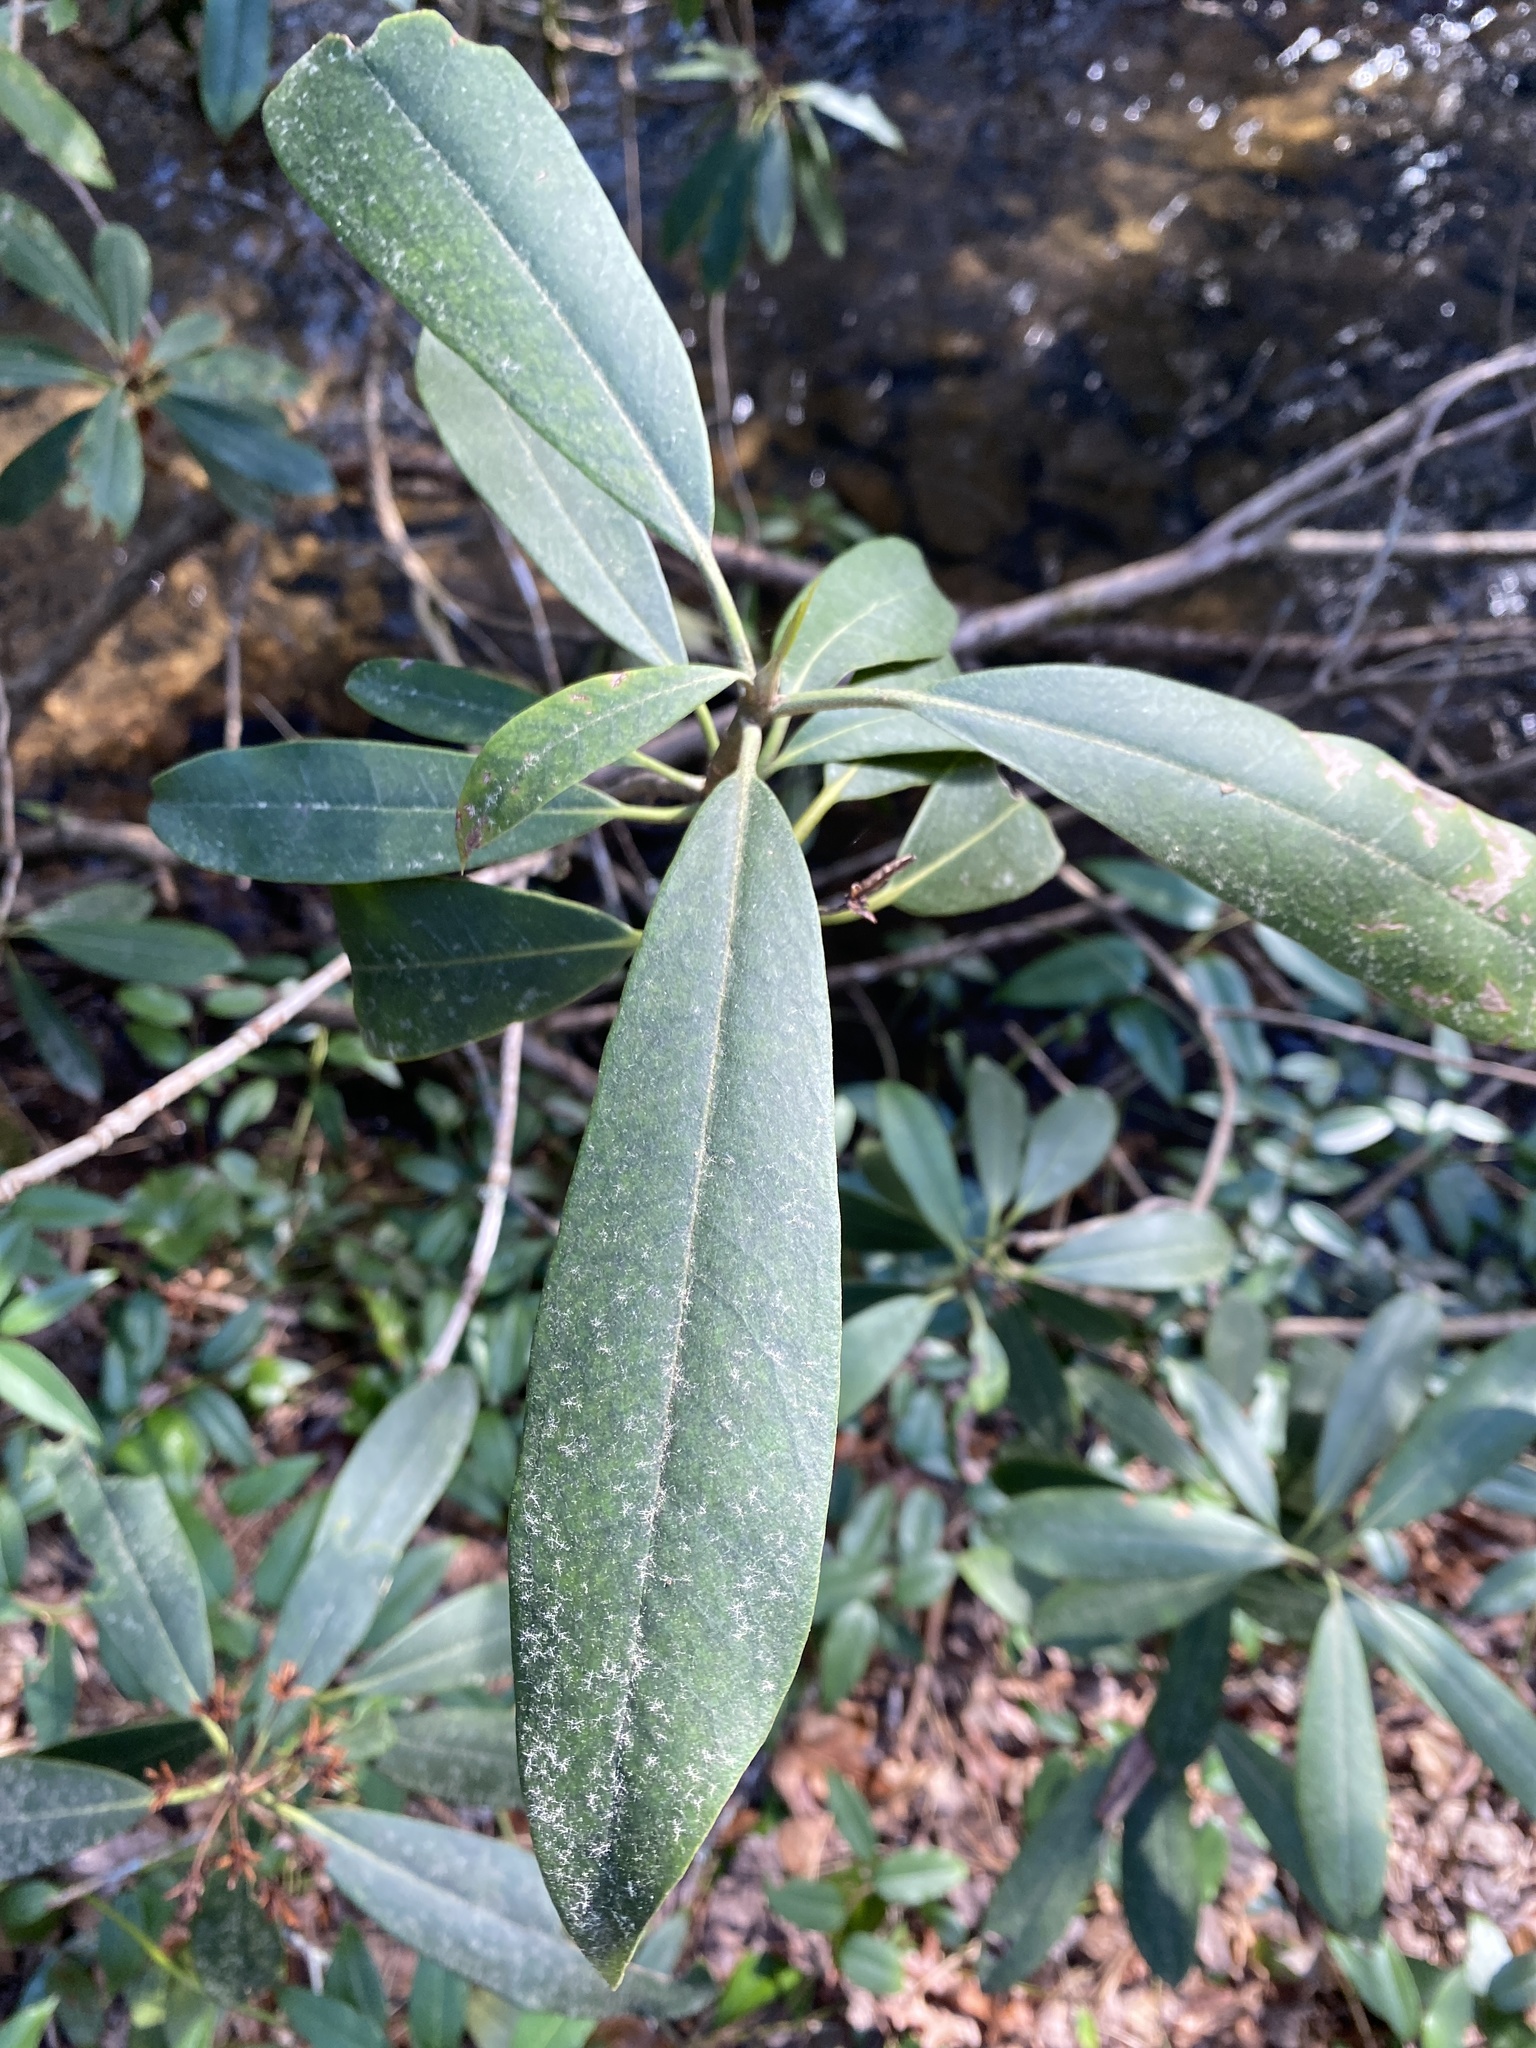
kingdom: Plantae
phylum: Tracheophyta
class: Magnoliopsida
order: Ericales
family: Ericaceae
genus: Rhododendron
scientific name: Rhododendron maximum
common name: Great rhododendron
